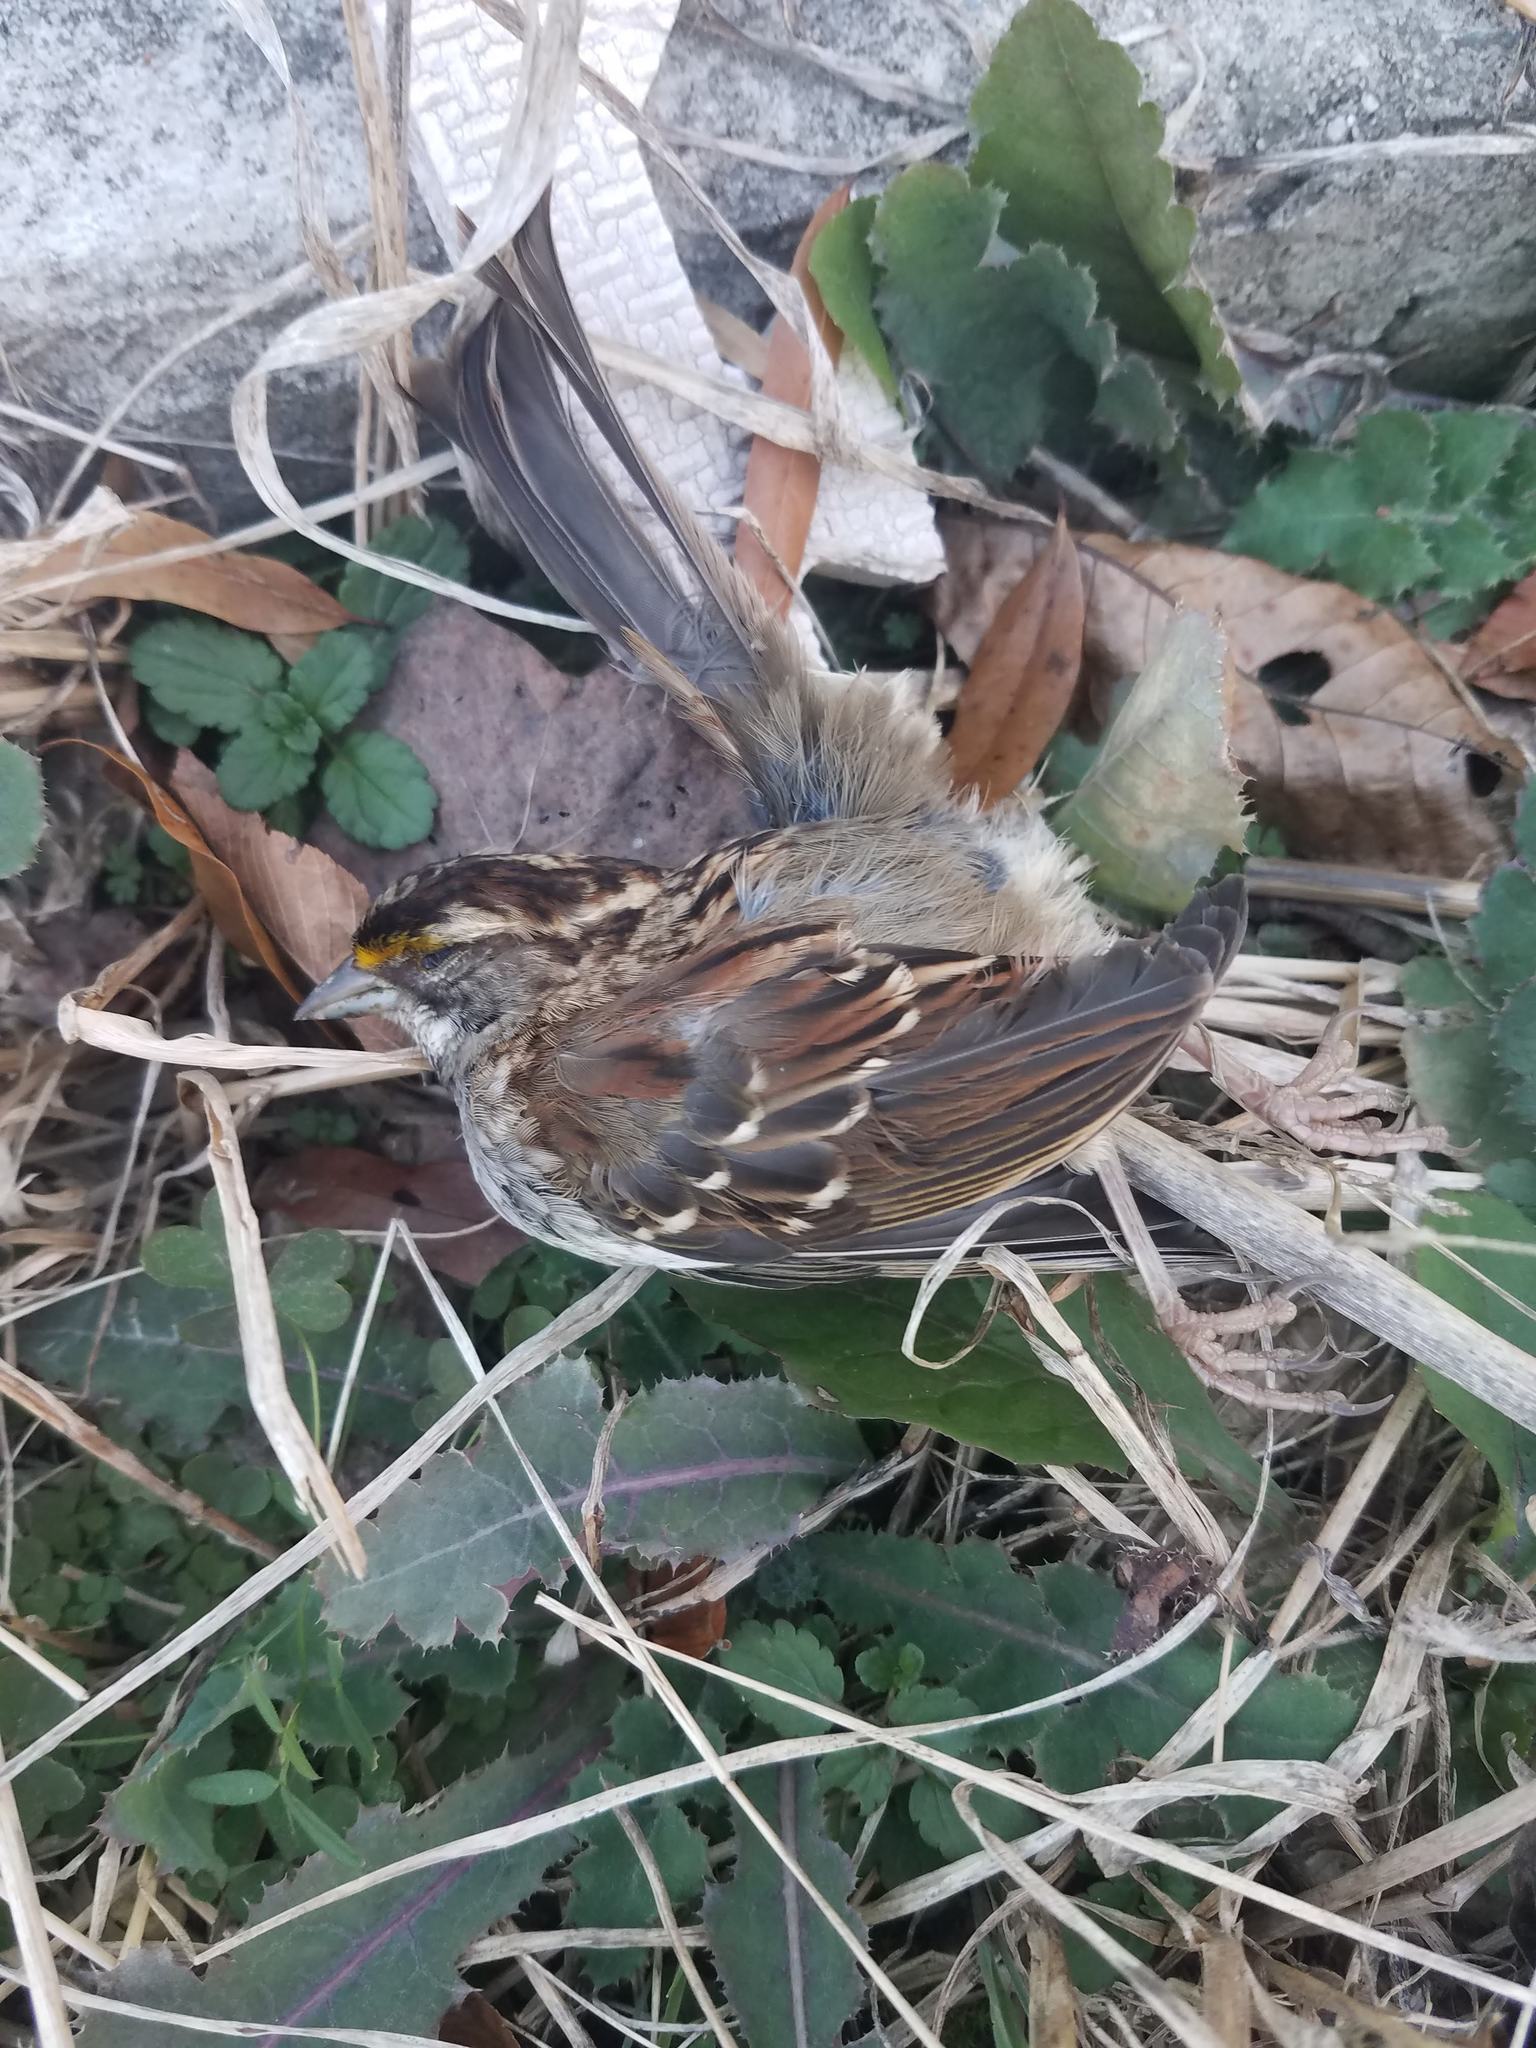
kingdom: Animalia
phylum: Chordata
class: Aves
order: Passeriformes
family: Passerellidae
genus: Zonotrichia
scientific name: Zonotrichia albicollis
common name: White-throated sparrow
